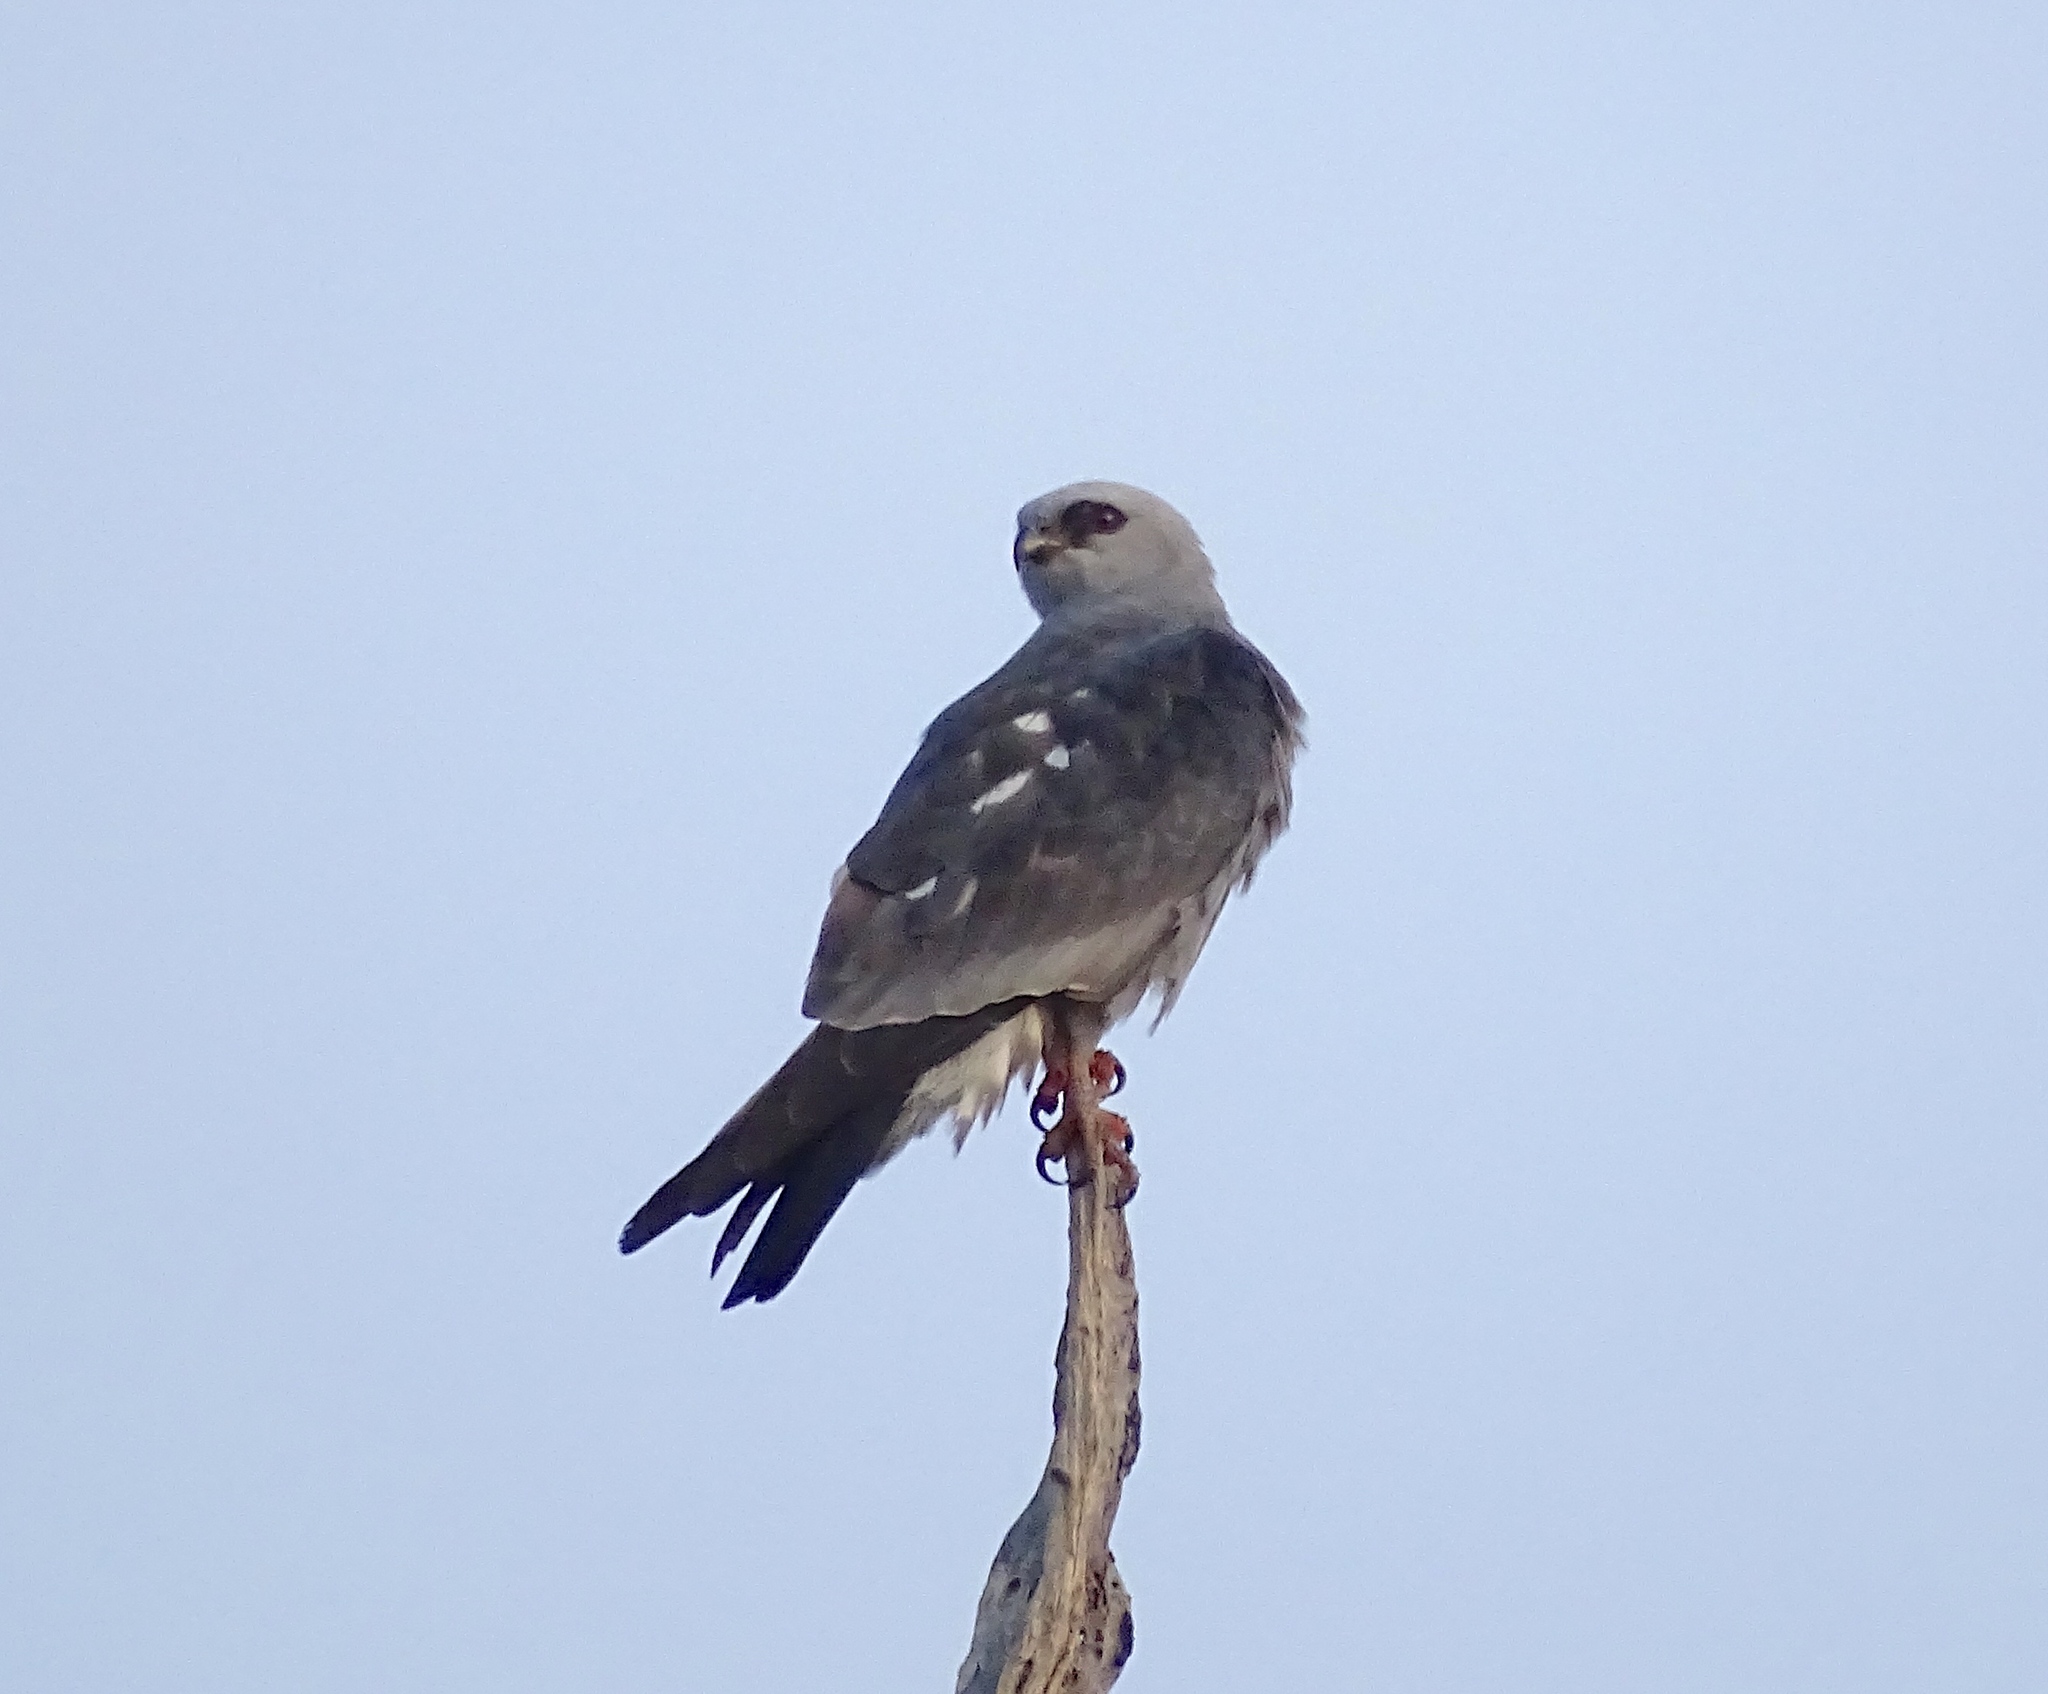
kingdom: Animalia
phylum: Chordata
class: Aves
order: Accipitriformes
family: Accipitridae
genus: Ictinia
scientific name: Ictinia mississippiensis
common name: Mississippi kite
